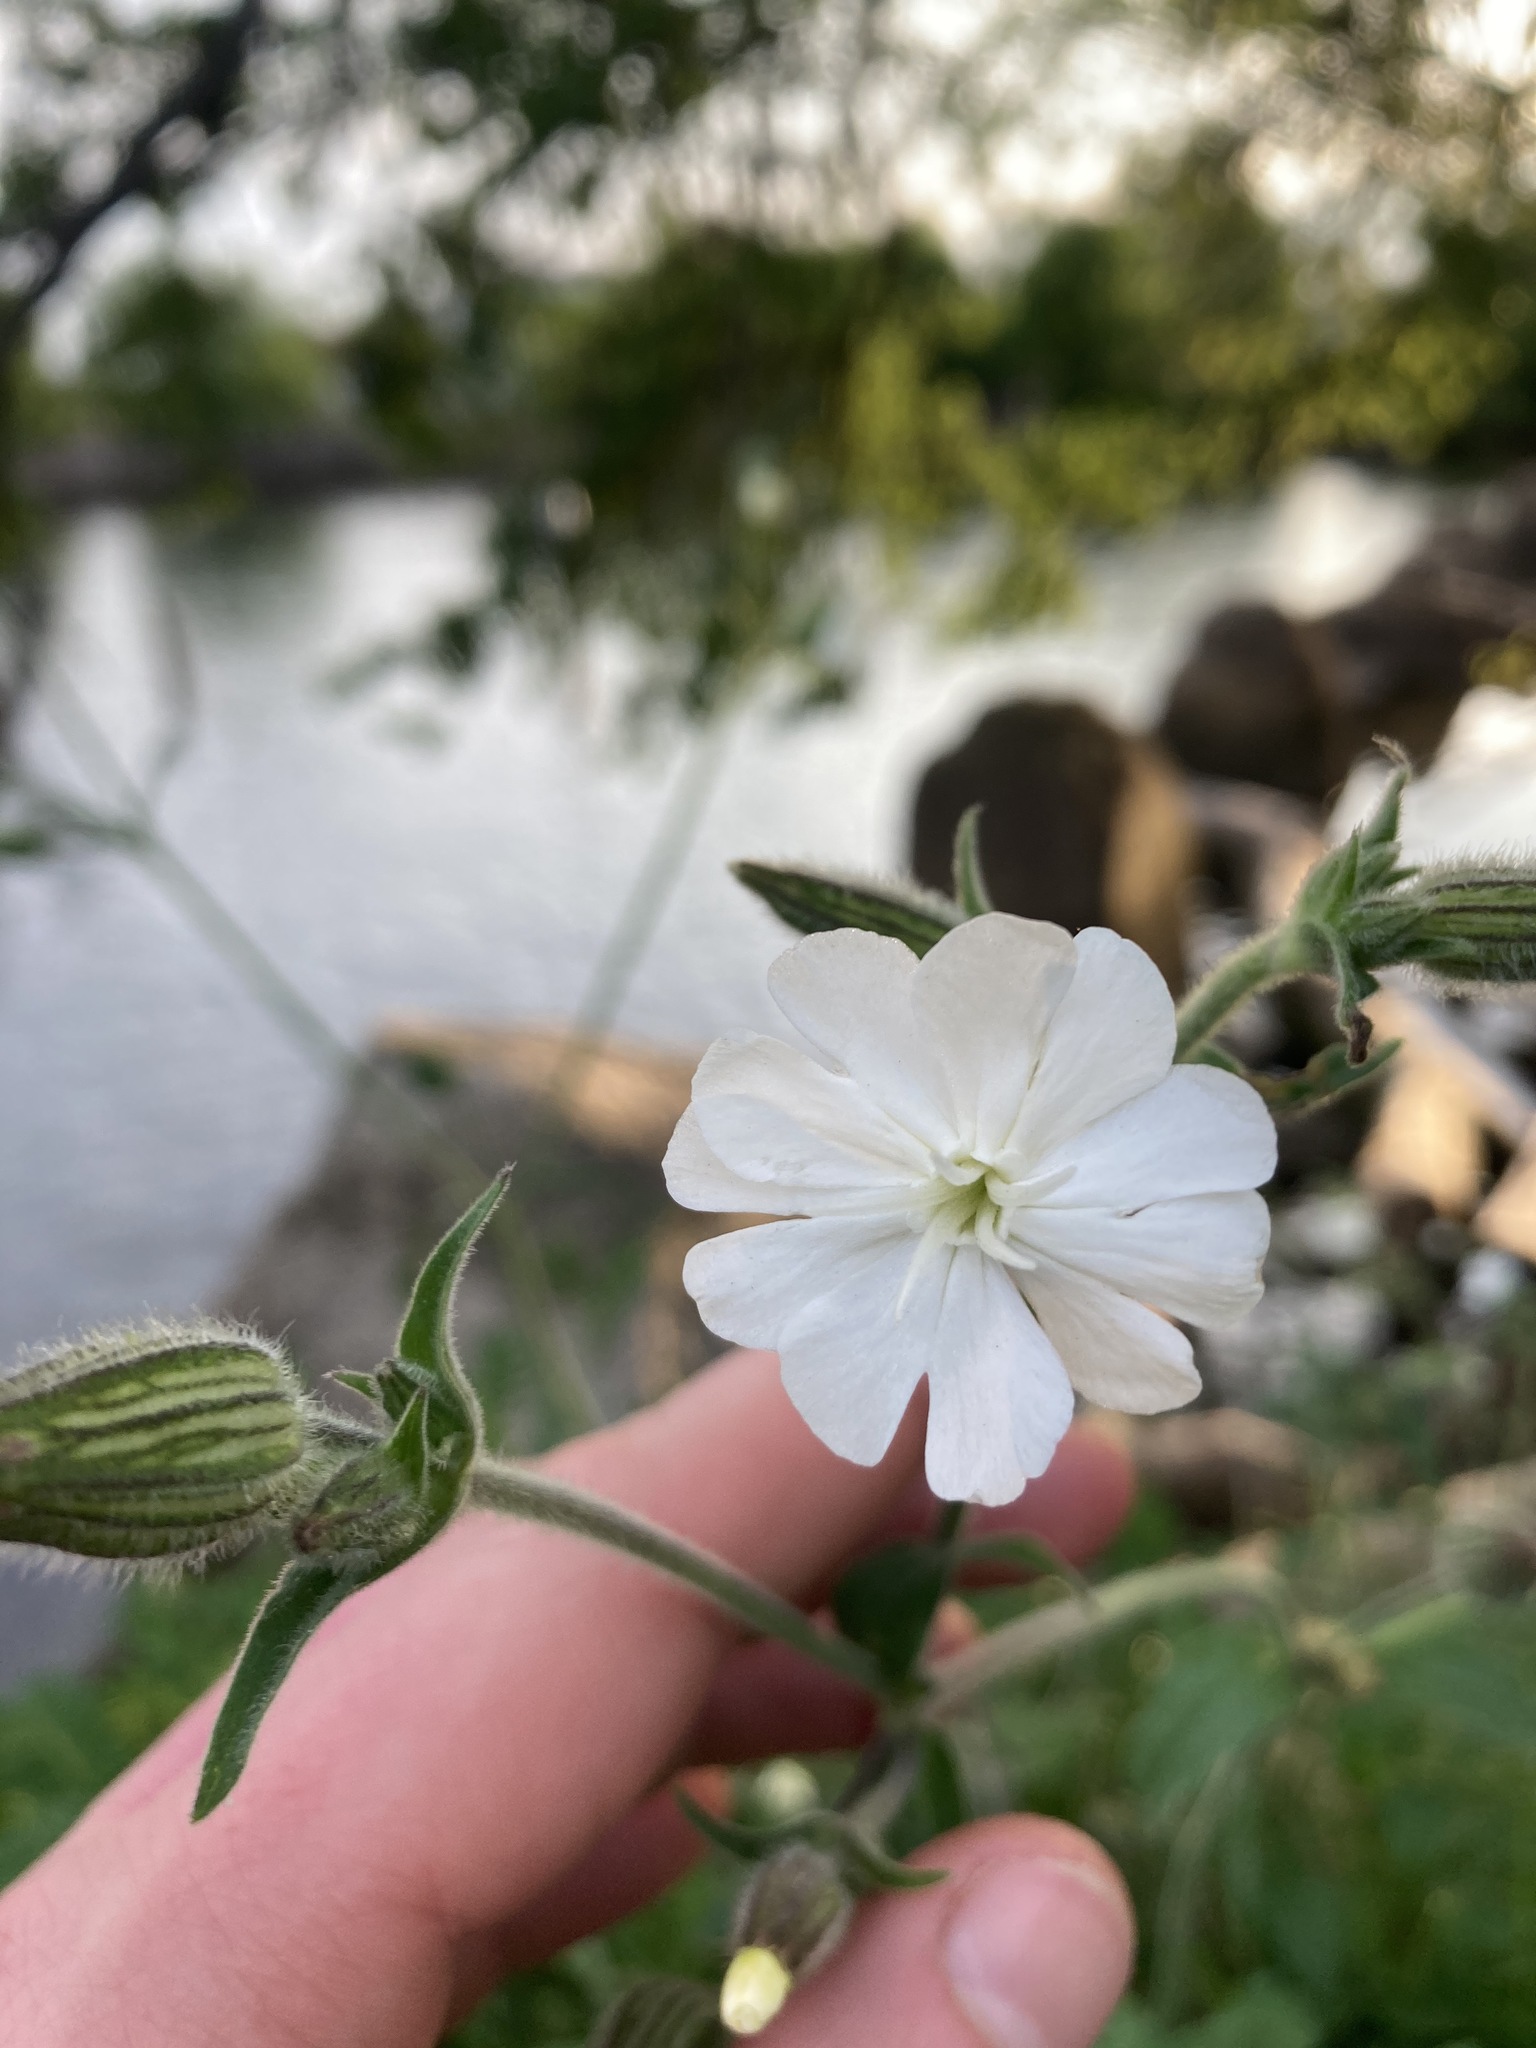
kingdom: Plantae
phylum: Tracheophyta
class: Magnoliopsida
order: Caryophyllales
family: Caryophyllaceae
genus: Silene
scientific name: Silene latifolia
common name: White campion
